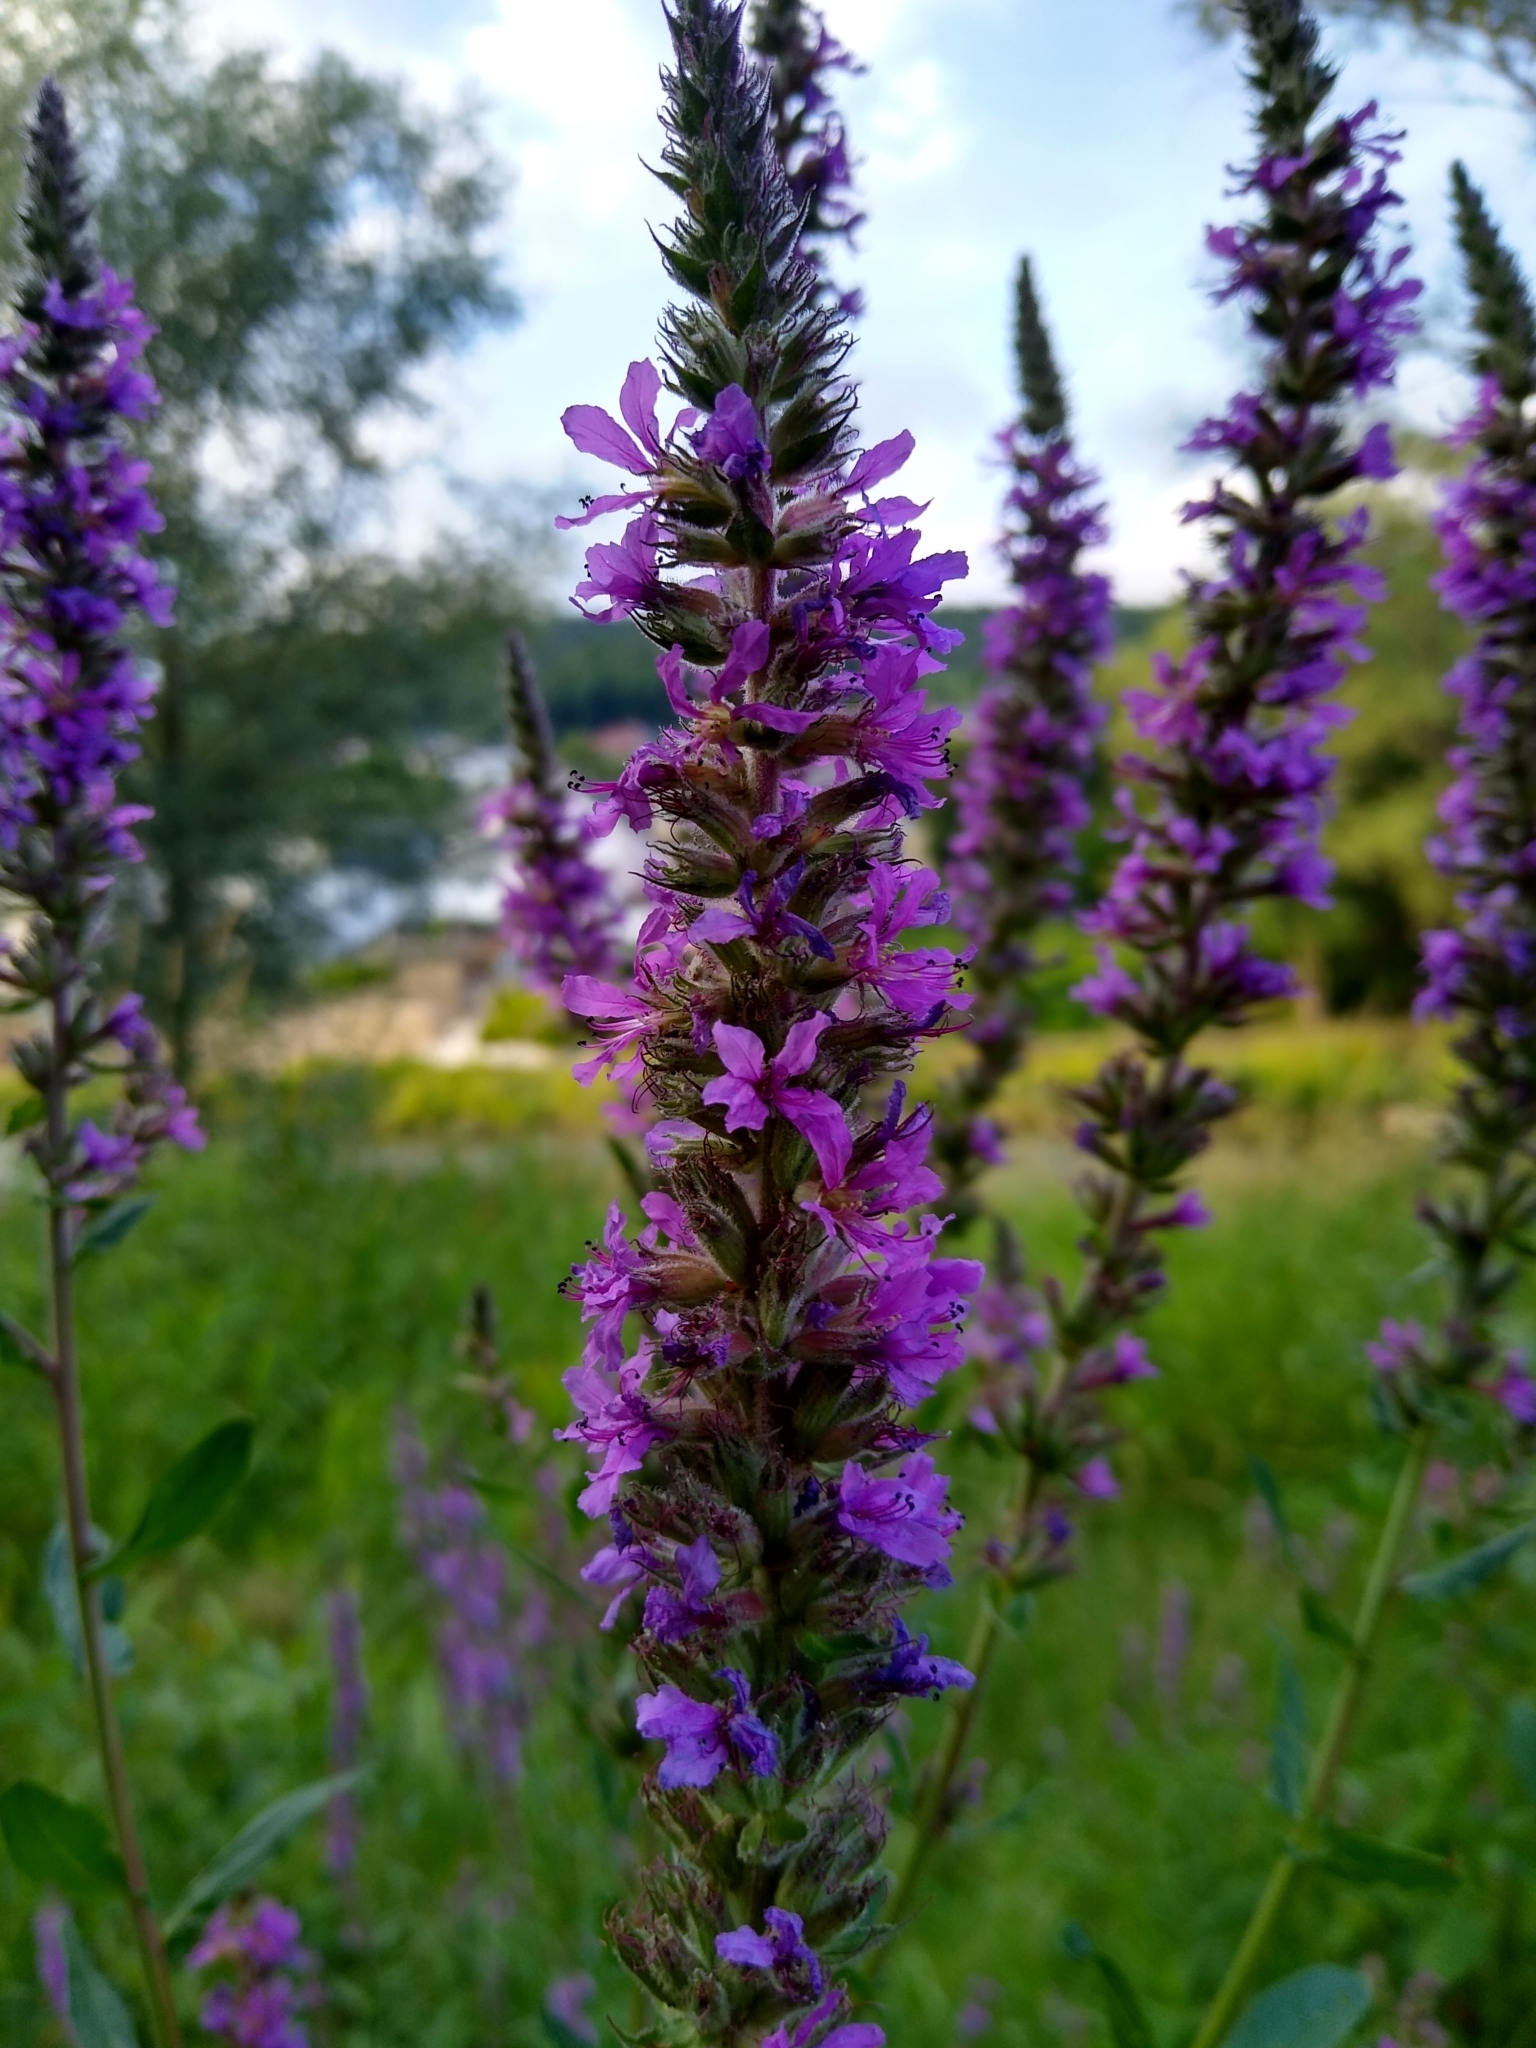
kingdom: Plantae
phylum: Tracheophyta
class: Magnoliopsida
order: Myrtales
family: Lythraceae
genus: Lythrum
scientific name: Lythrum salicaria
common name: Purple loosestrife
